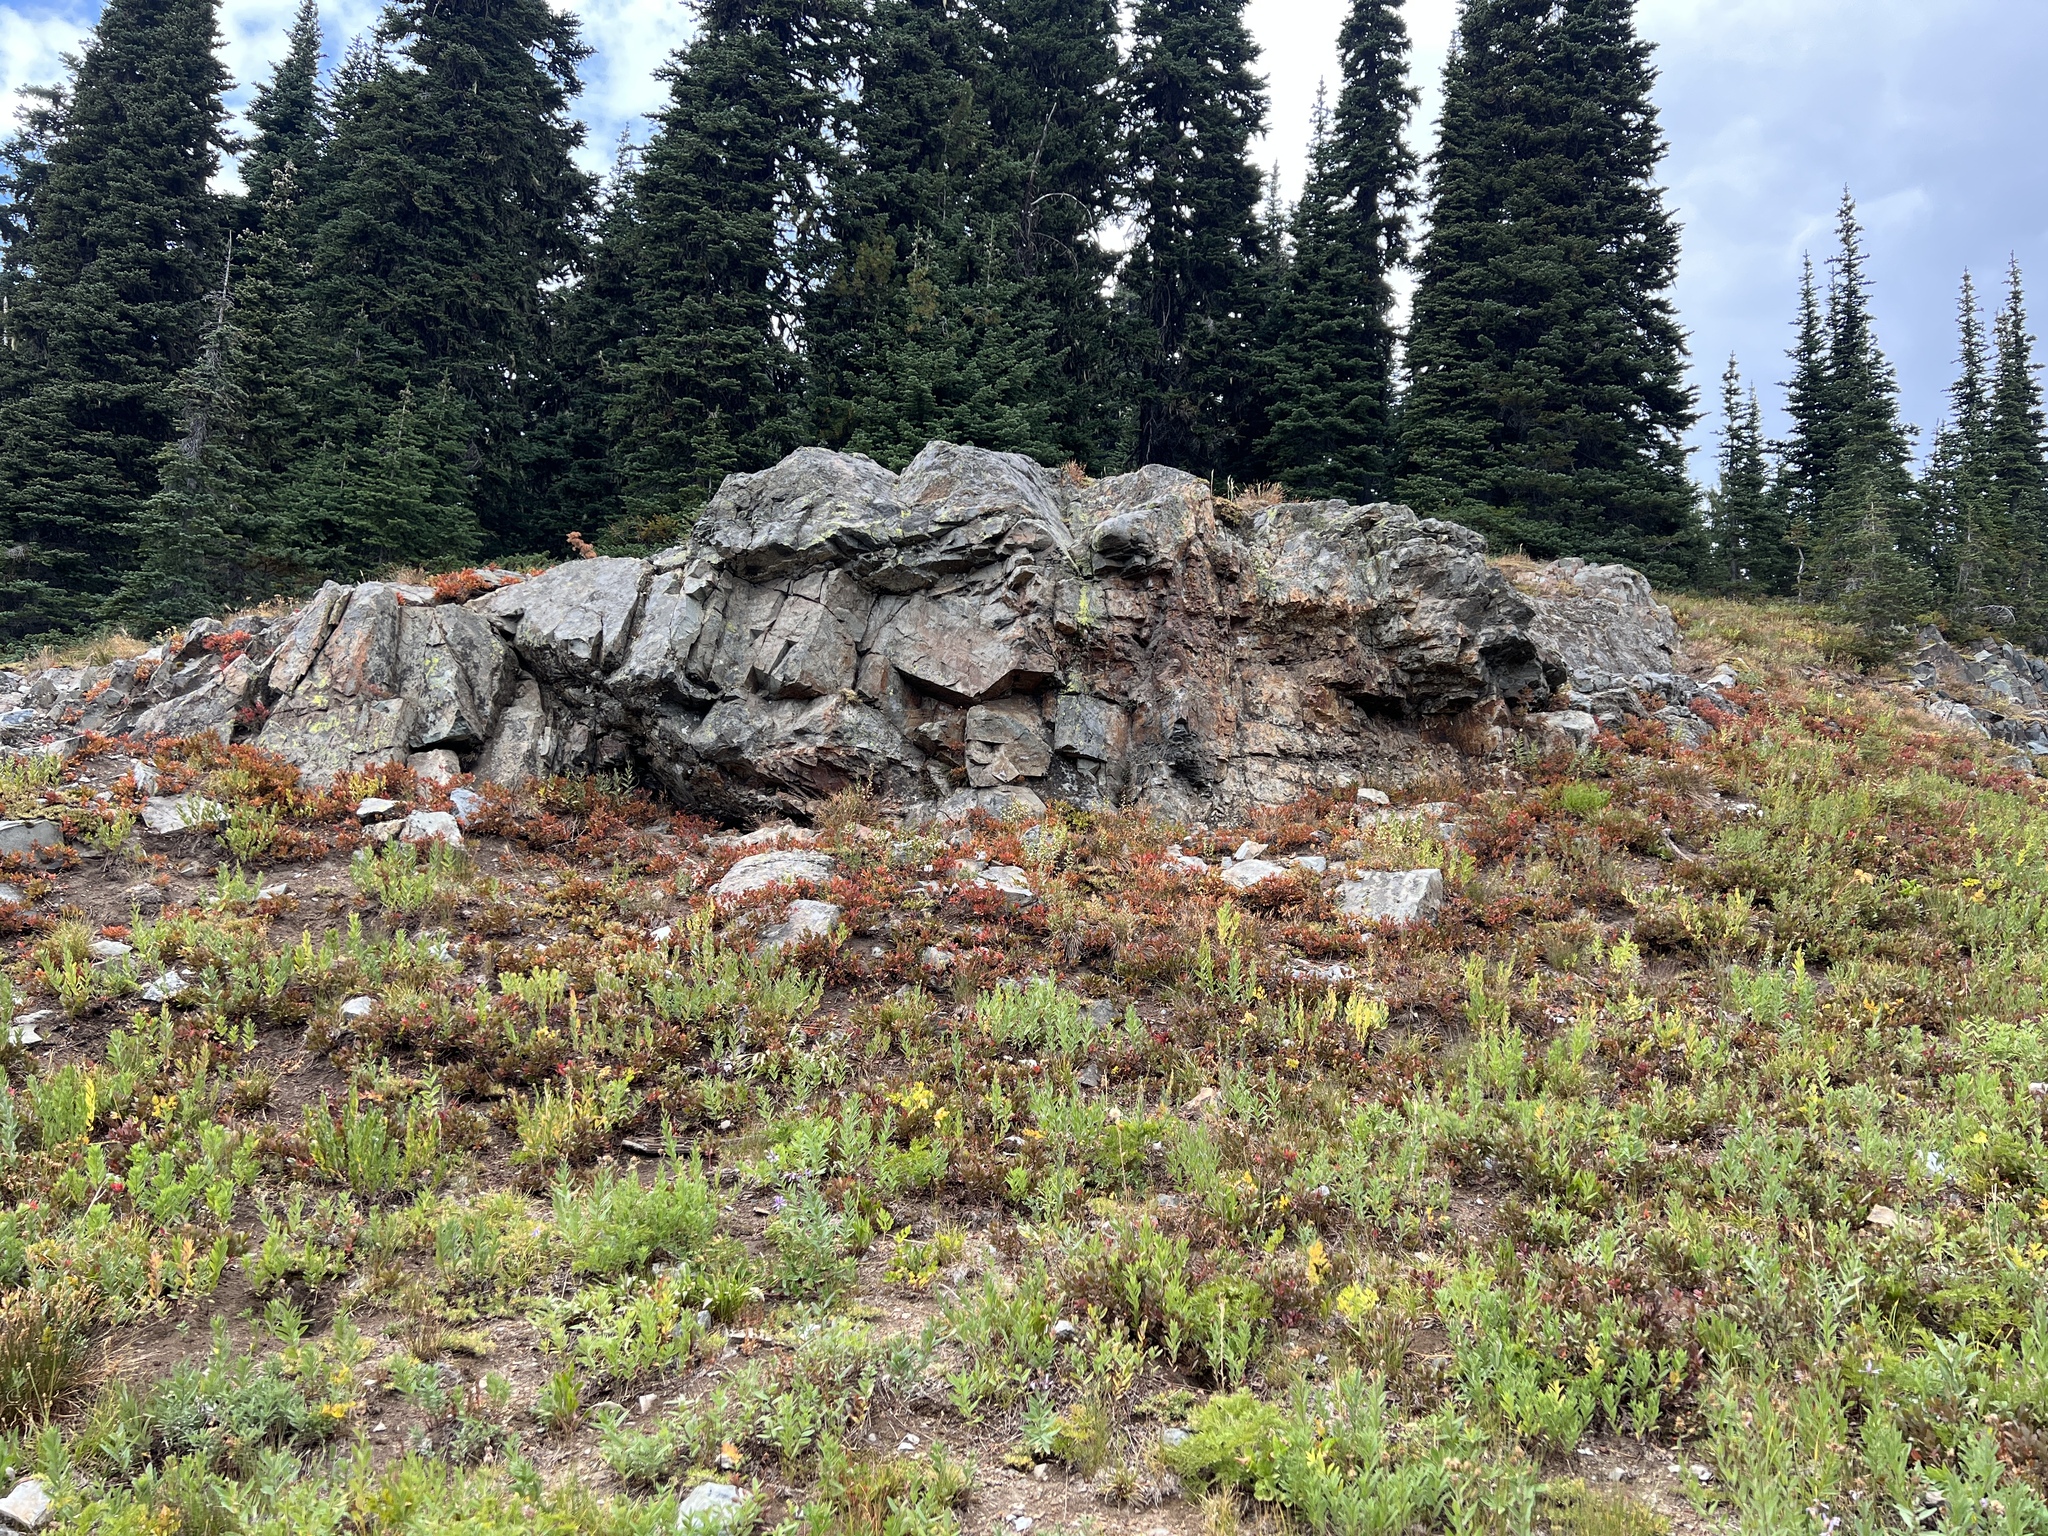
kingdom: Plantae
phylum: Tracheophyta
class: Polypodiopsida
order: Polypodiales
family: Pteridaceae
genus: Myriopteris
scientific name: Myriopteris gracillima
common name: Lace fern
